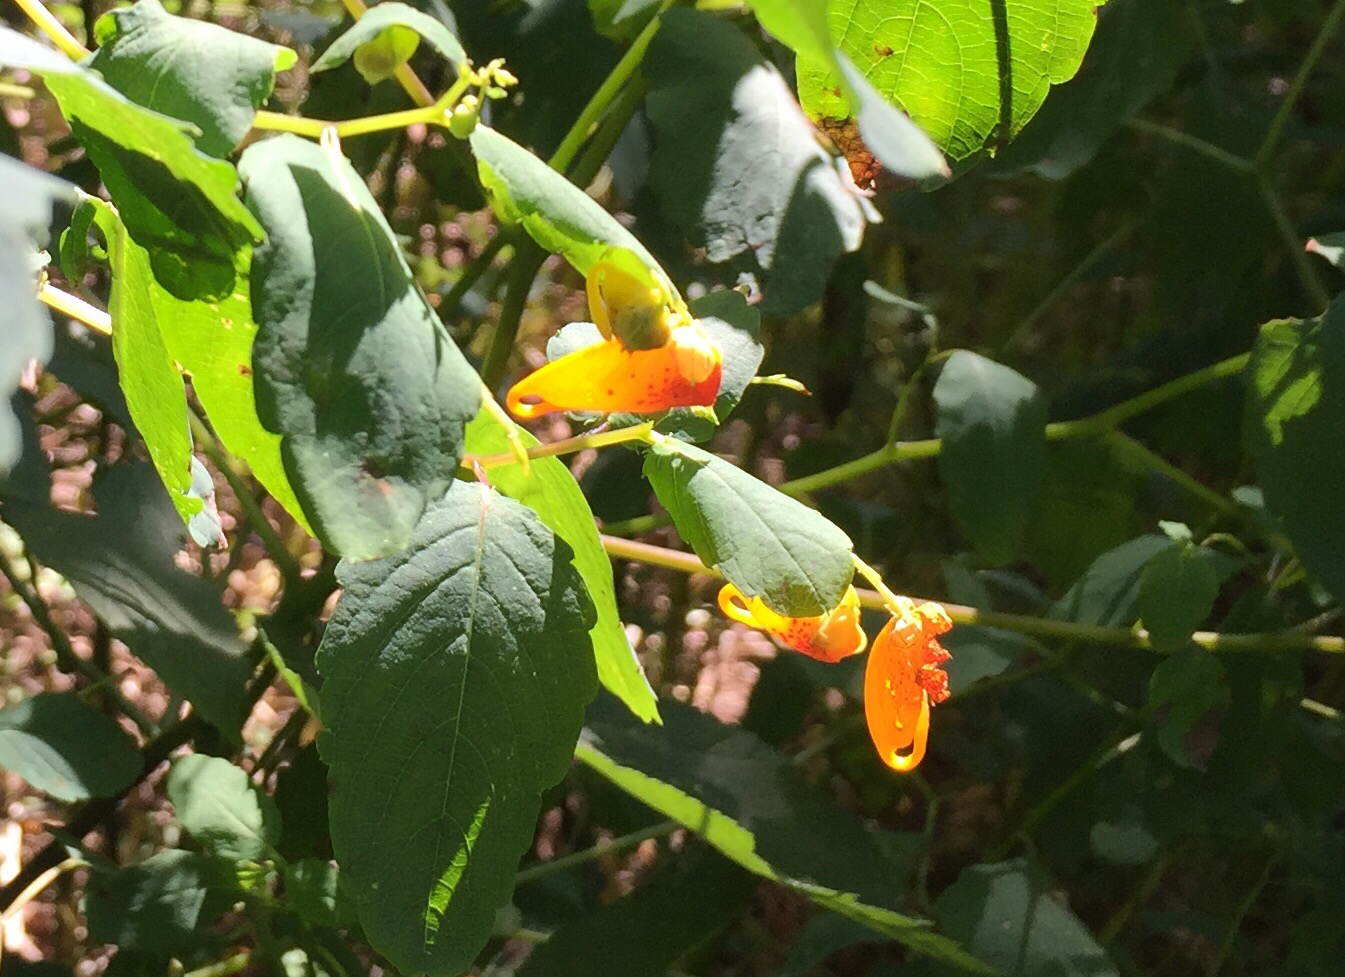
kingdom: Plantae
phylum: Tracheophyta
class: Magnoliopsida
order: Ericales
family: Balsaminaceae
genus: Impatiens
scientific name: Impatiens capensis
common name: Orange balsam
